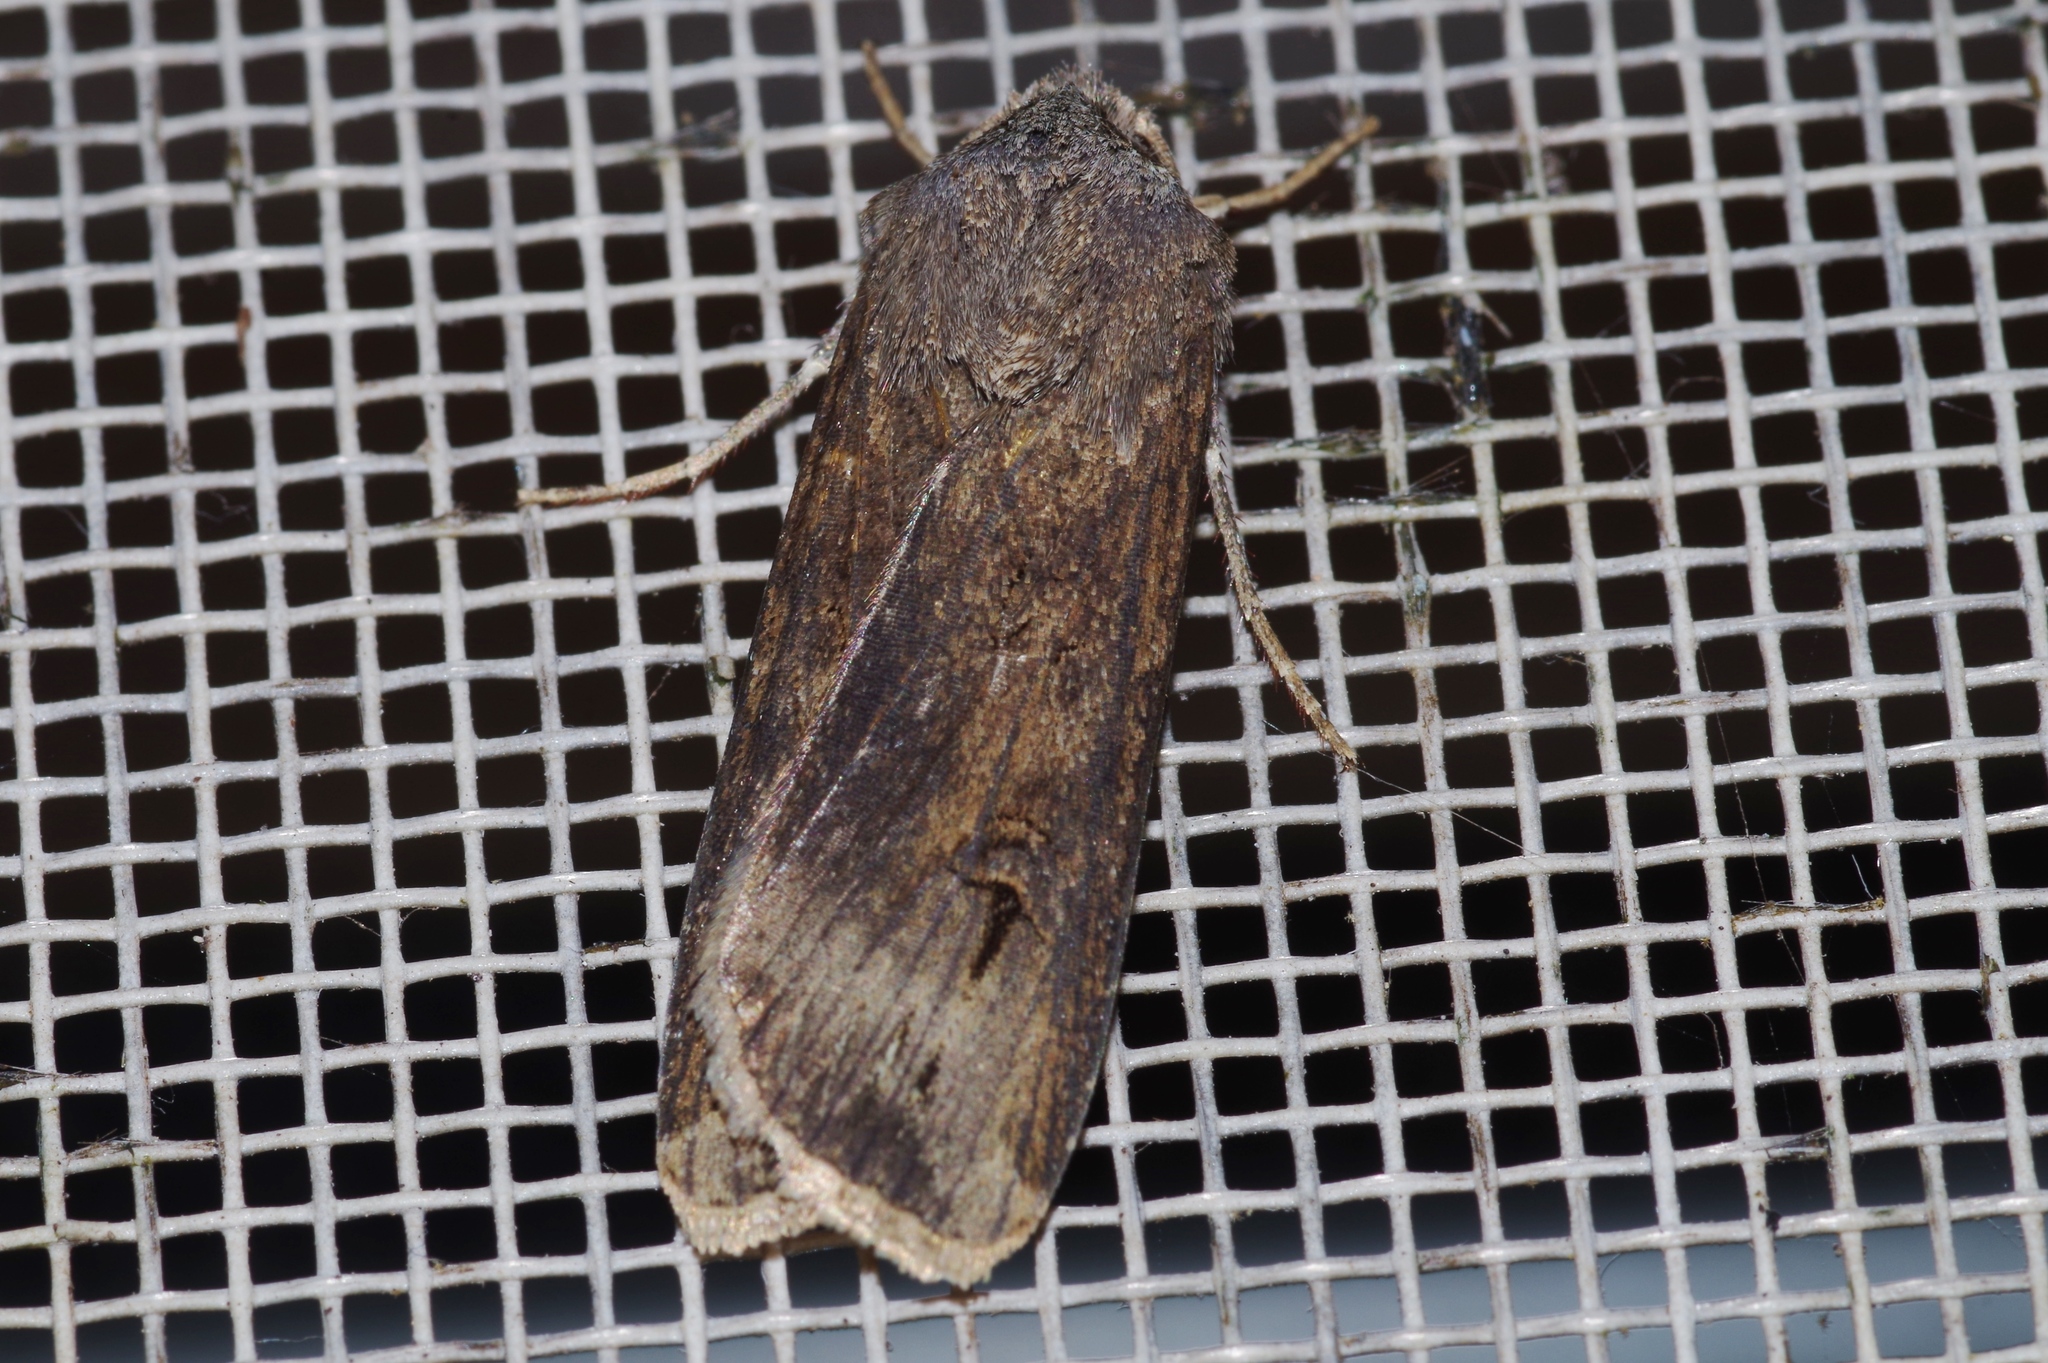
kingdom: Animalia
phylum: Arthropoda
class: Insecta
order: Lepidoptera
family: Noctuidae
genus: Agrotis
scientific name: Agrotis ipsilon
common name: Dark sword-grass
